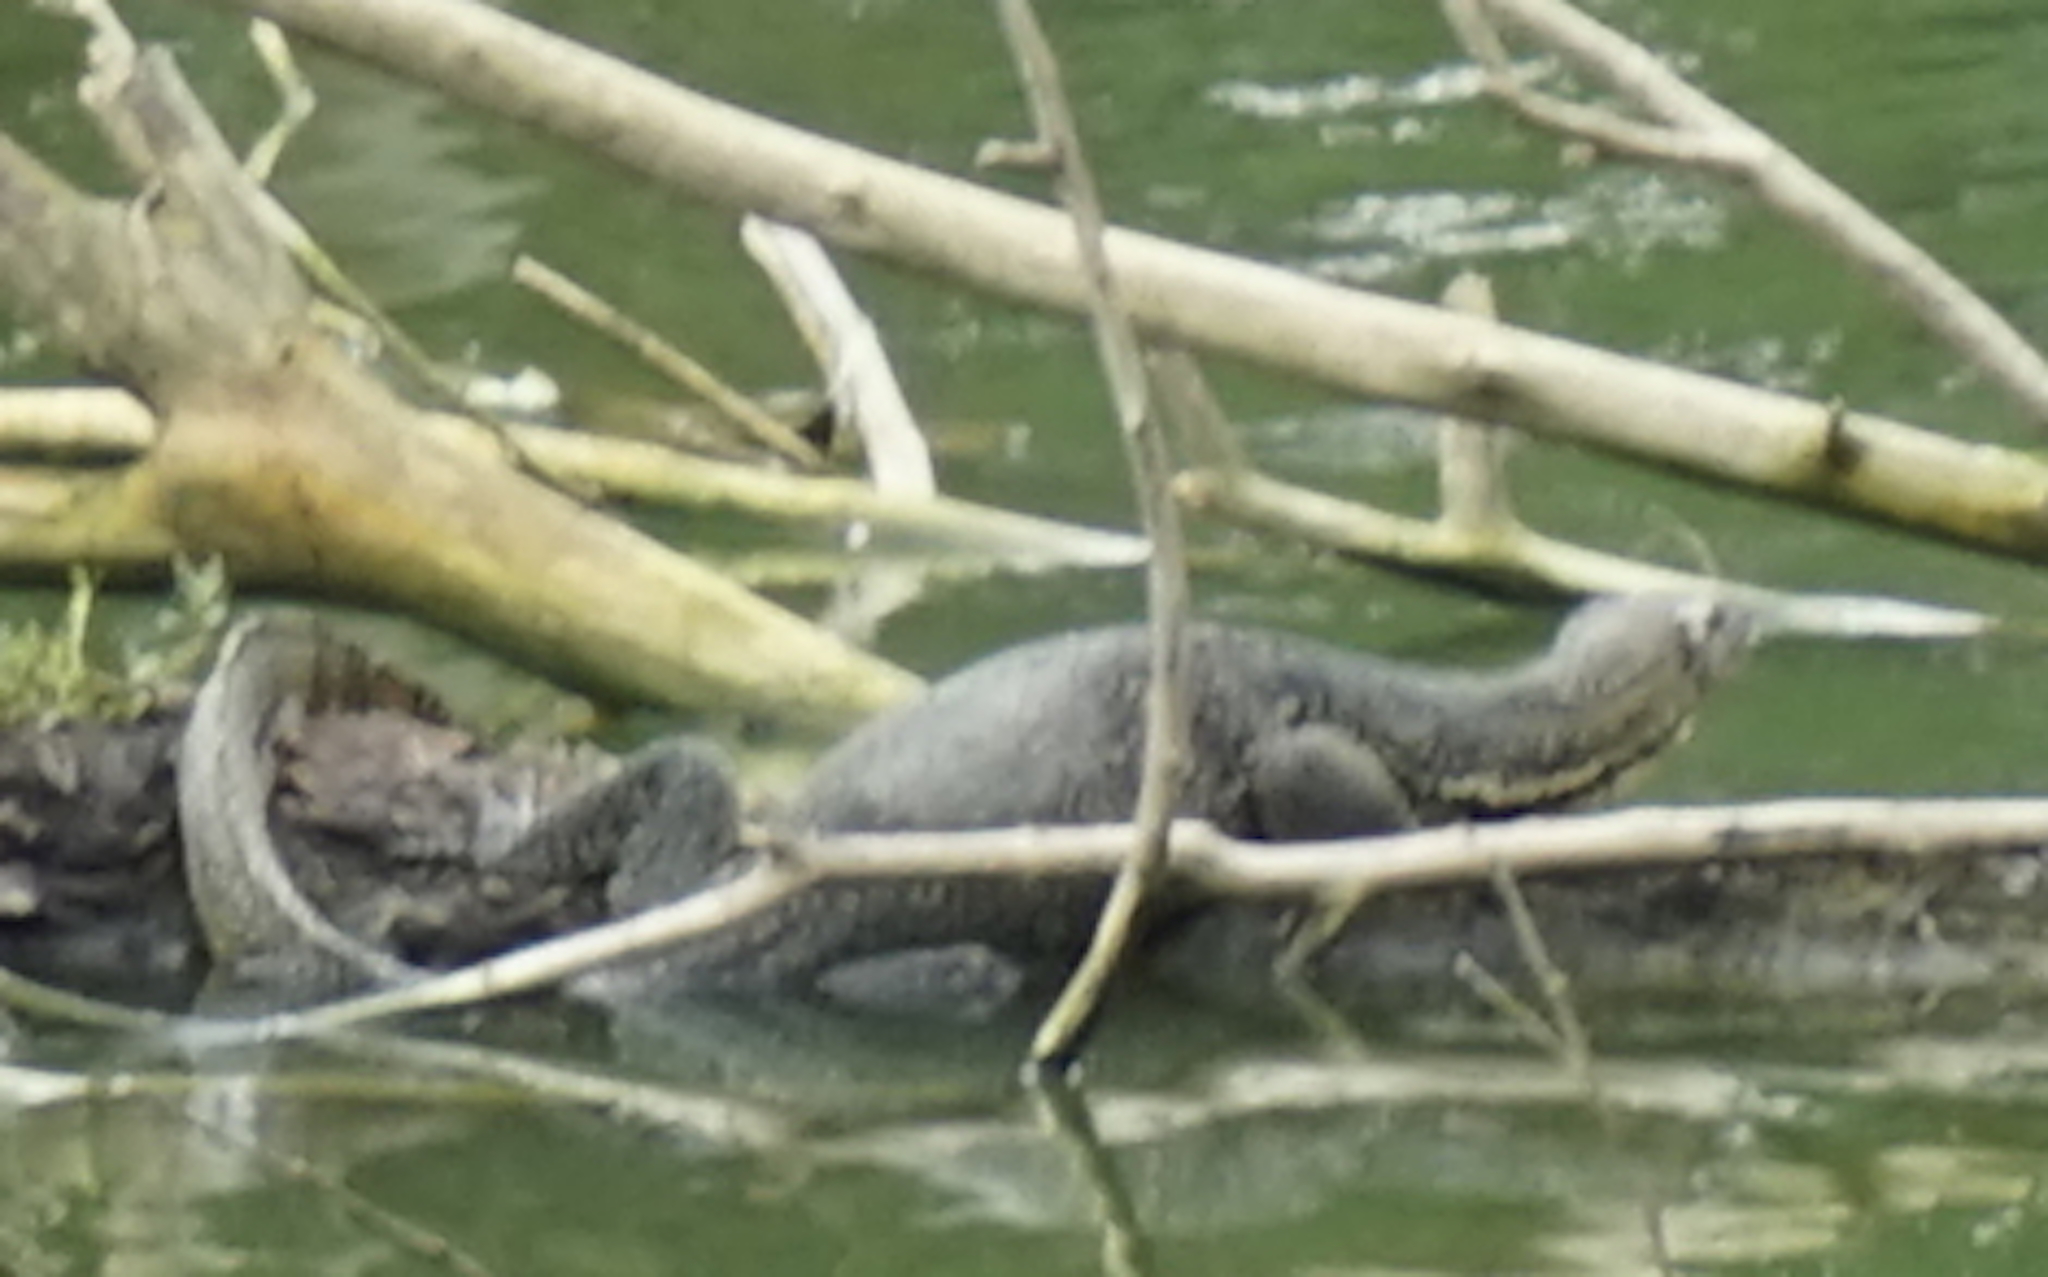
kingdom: Animalia
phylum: Chordata
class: Squamata
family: Varanidae
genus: Varanus
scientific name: Varanus salvator
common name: Common water monitor
